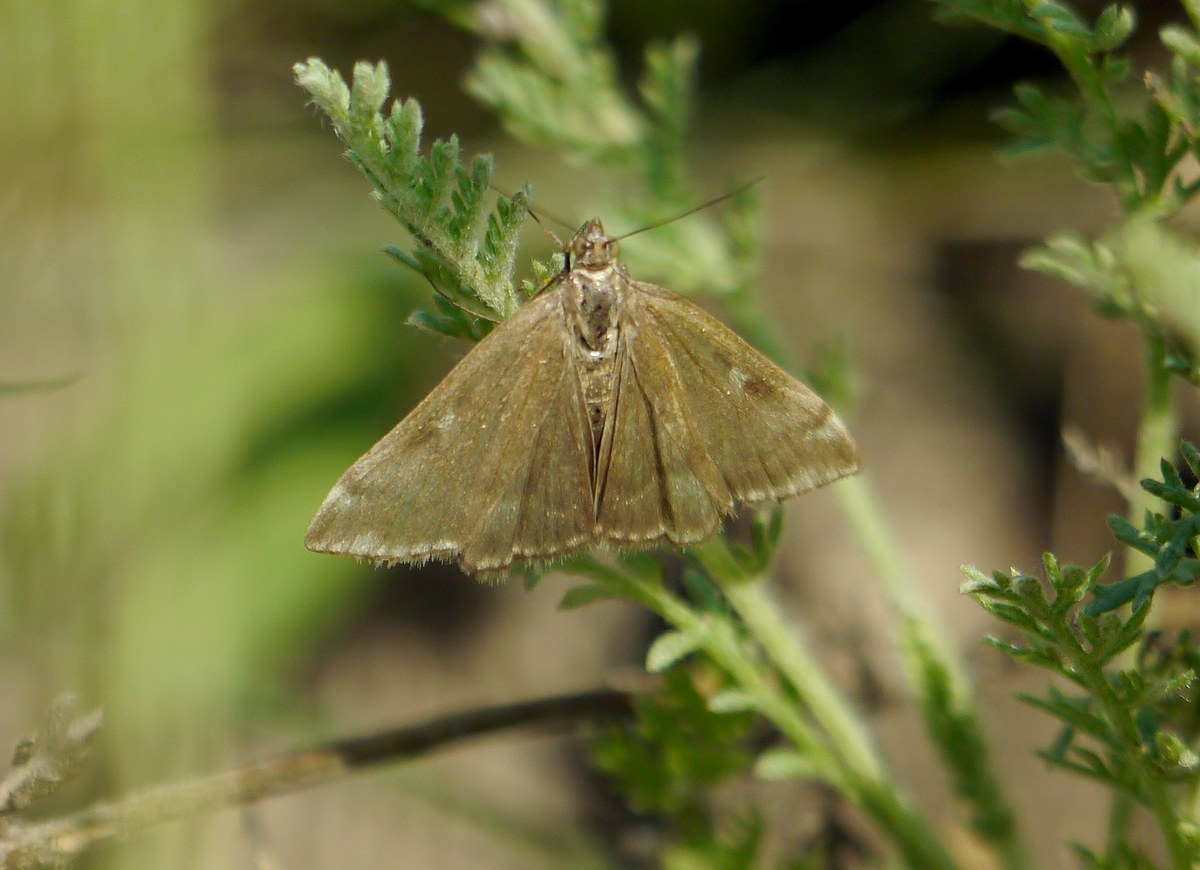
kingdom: Animalia
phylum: Arthropoda
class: Insecta
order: Lepidoptera
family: Crambidae
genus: Loxostege
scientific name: Loxostege sticticalis
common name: Crambid moth
